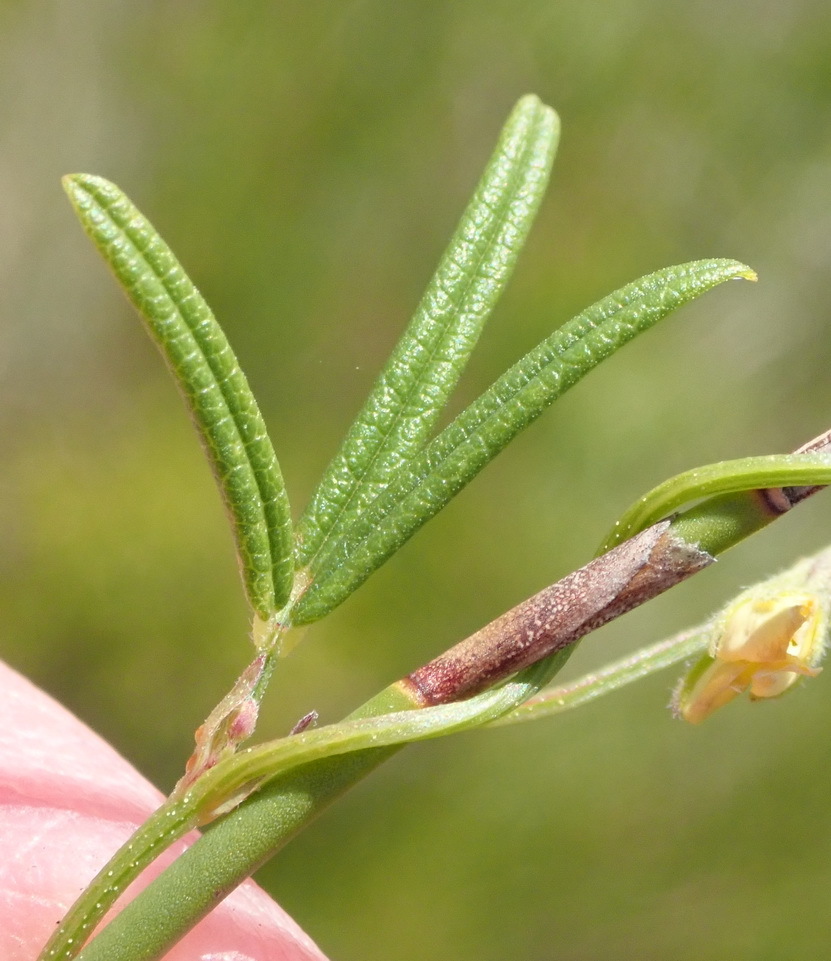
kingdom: Plantae
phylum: Tracheophyta
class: Magnoliopsida
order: Fabales
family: Fabaceae
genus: Rhynchosia
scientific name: Rhynchosia capensis
